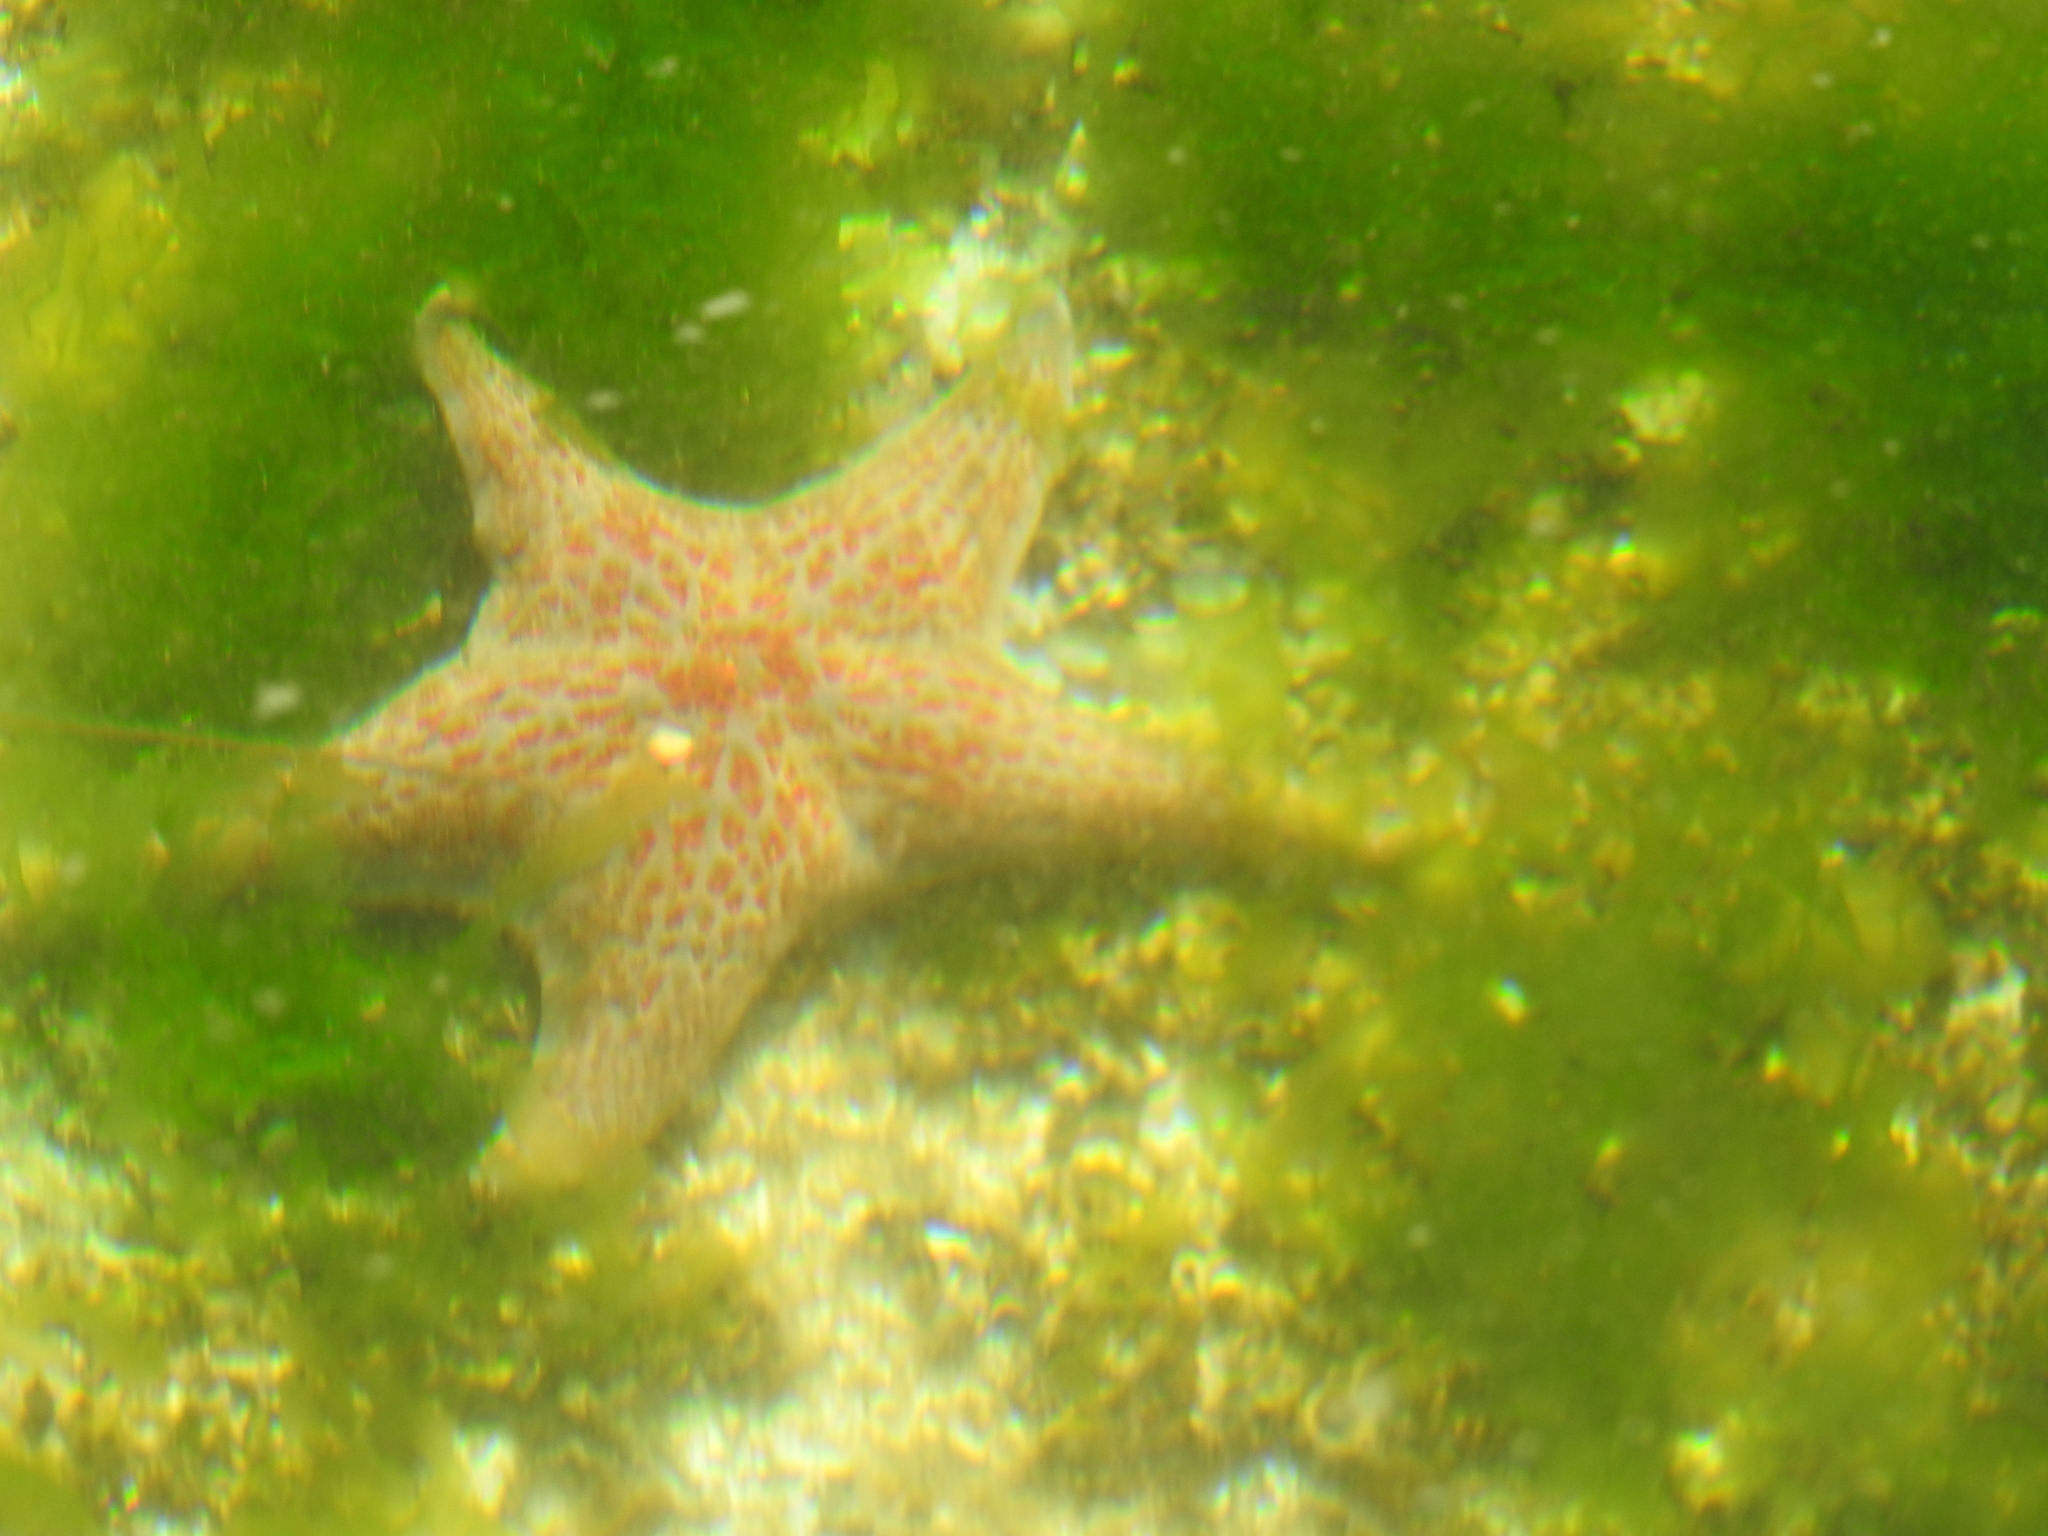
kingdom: Animalia
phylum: Echinodermata
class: Asteroidea
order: Valvatida
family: Asteropseidae
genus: Dermasterias
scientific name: Dermasterias imbricata
